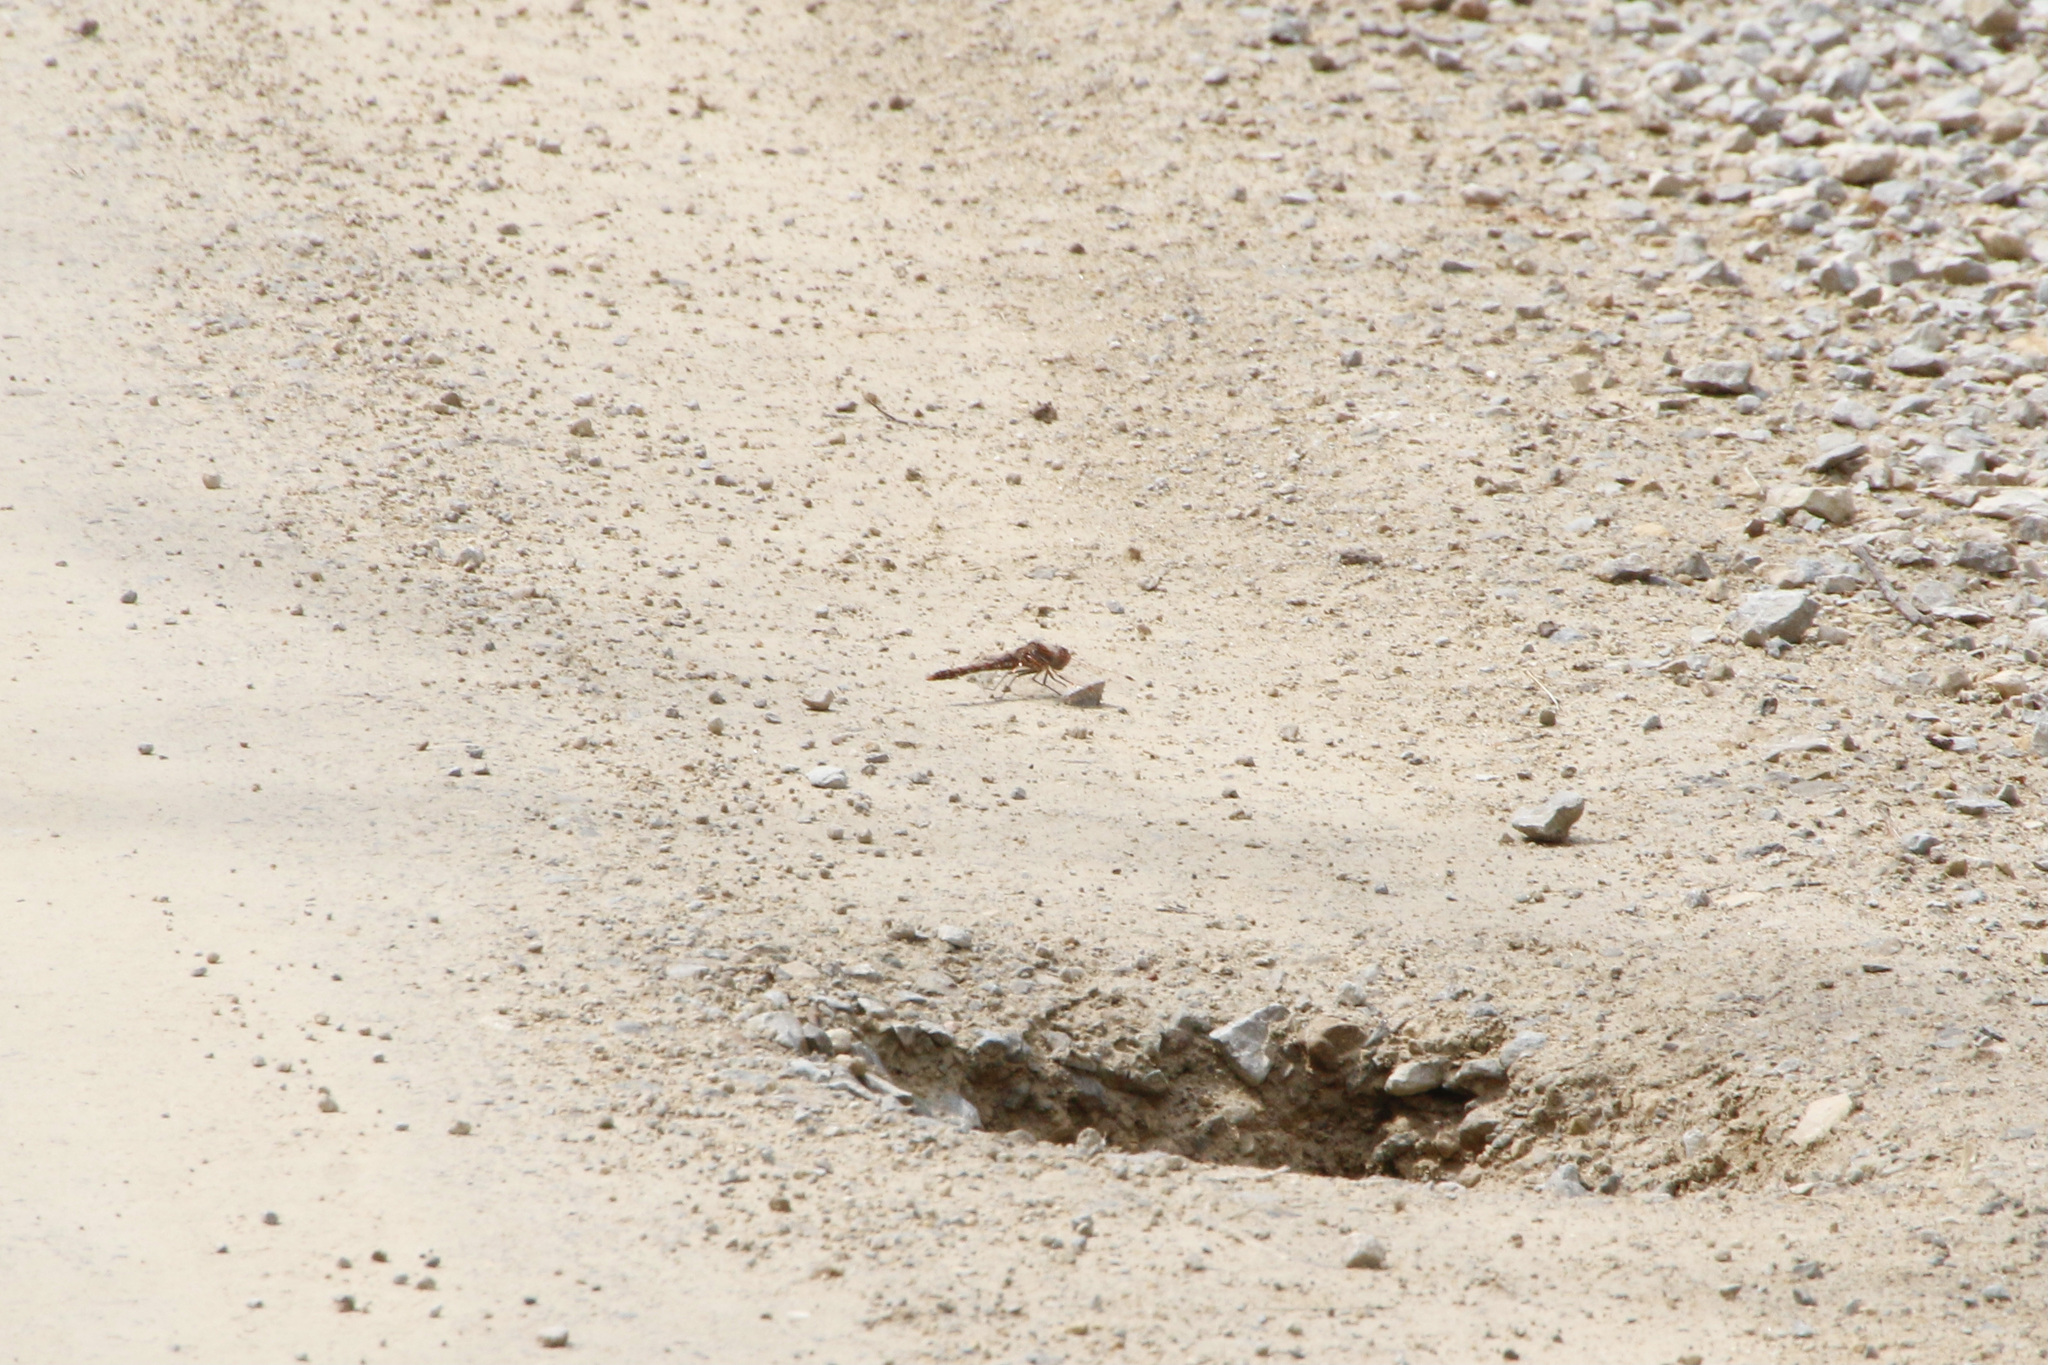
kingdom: Animalia
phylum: Arthropoda
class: Insecta
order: Odonata
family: Libellulidae
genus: Sympetrum
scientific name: Sympetrum corruptum
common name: Variegated meadowhawk
